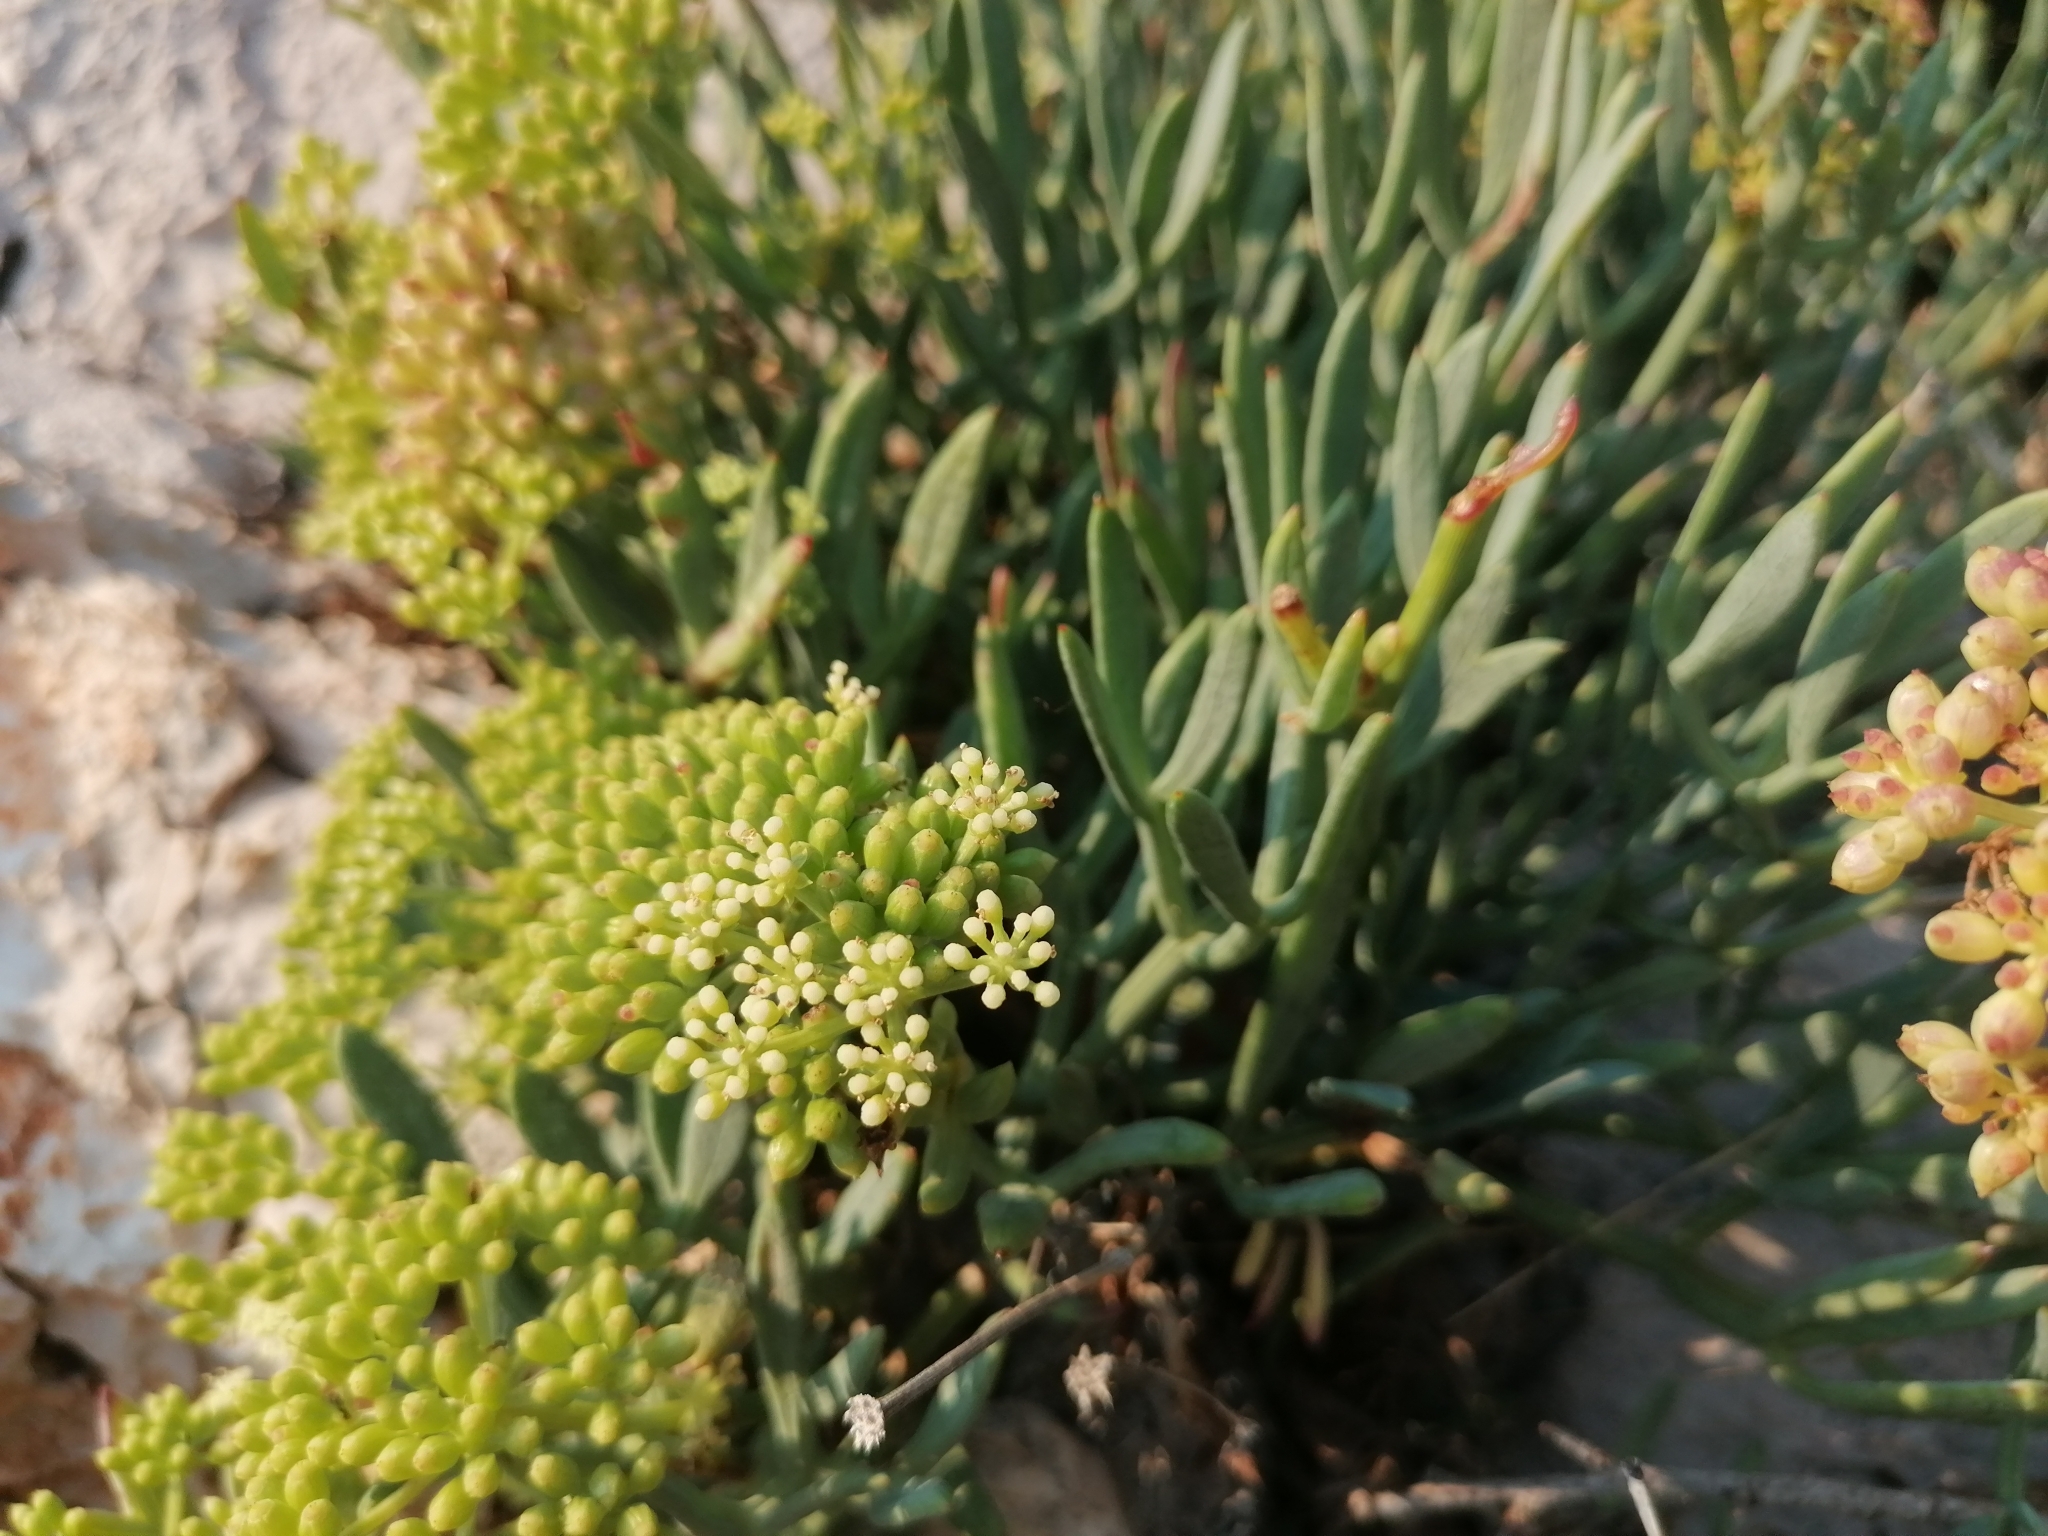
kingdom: Plantae
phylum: Tracheophyta
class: Magnoliopsida
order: Apiales
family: Apiaceae
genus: Crithmum
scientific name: Crithmum maritimum
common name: Rock samphire
